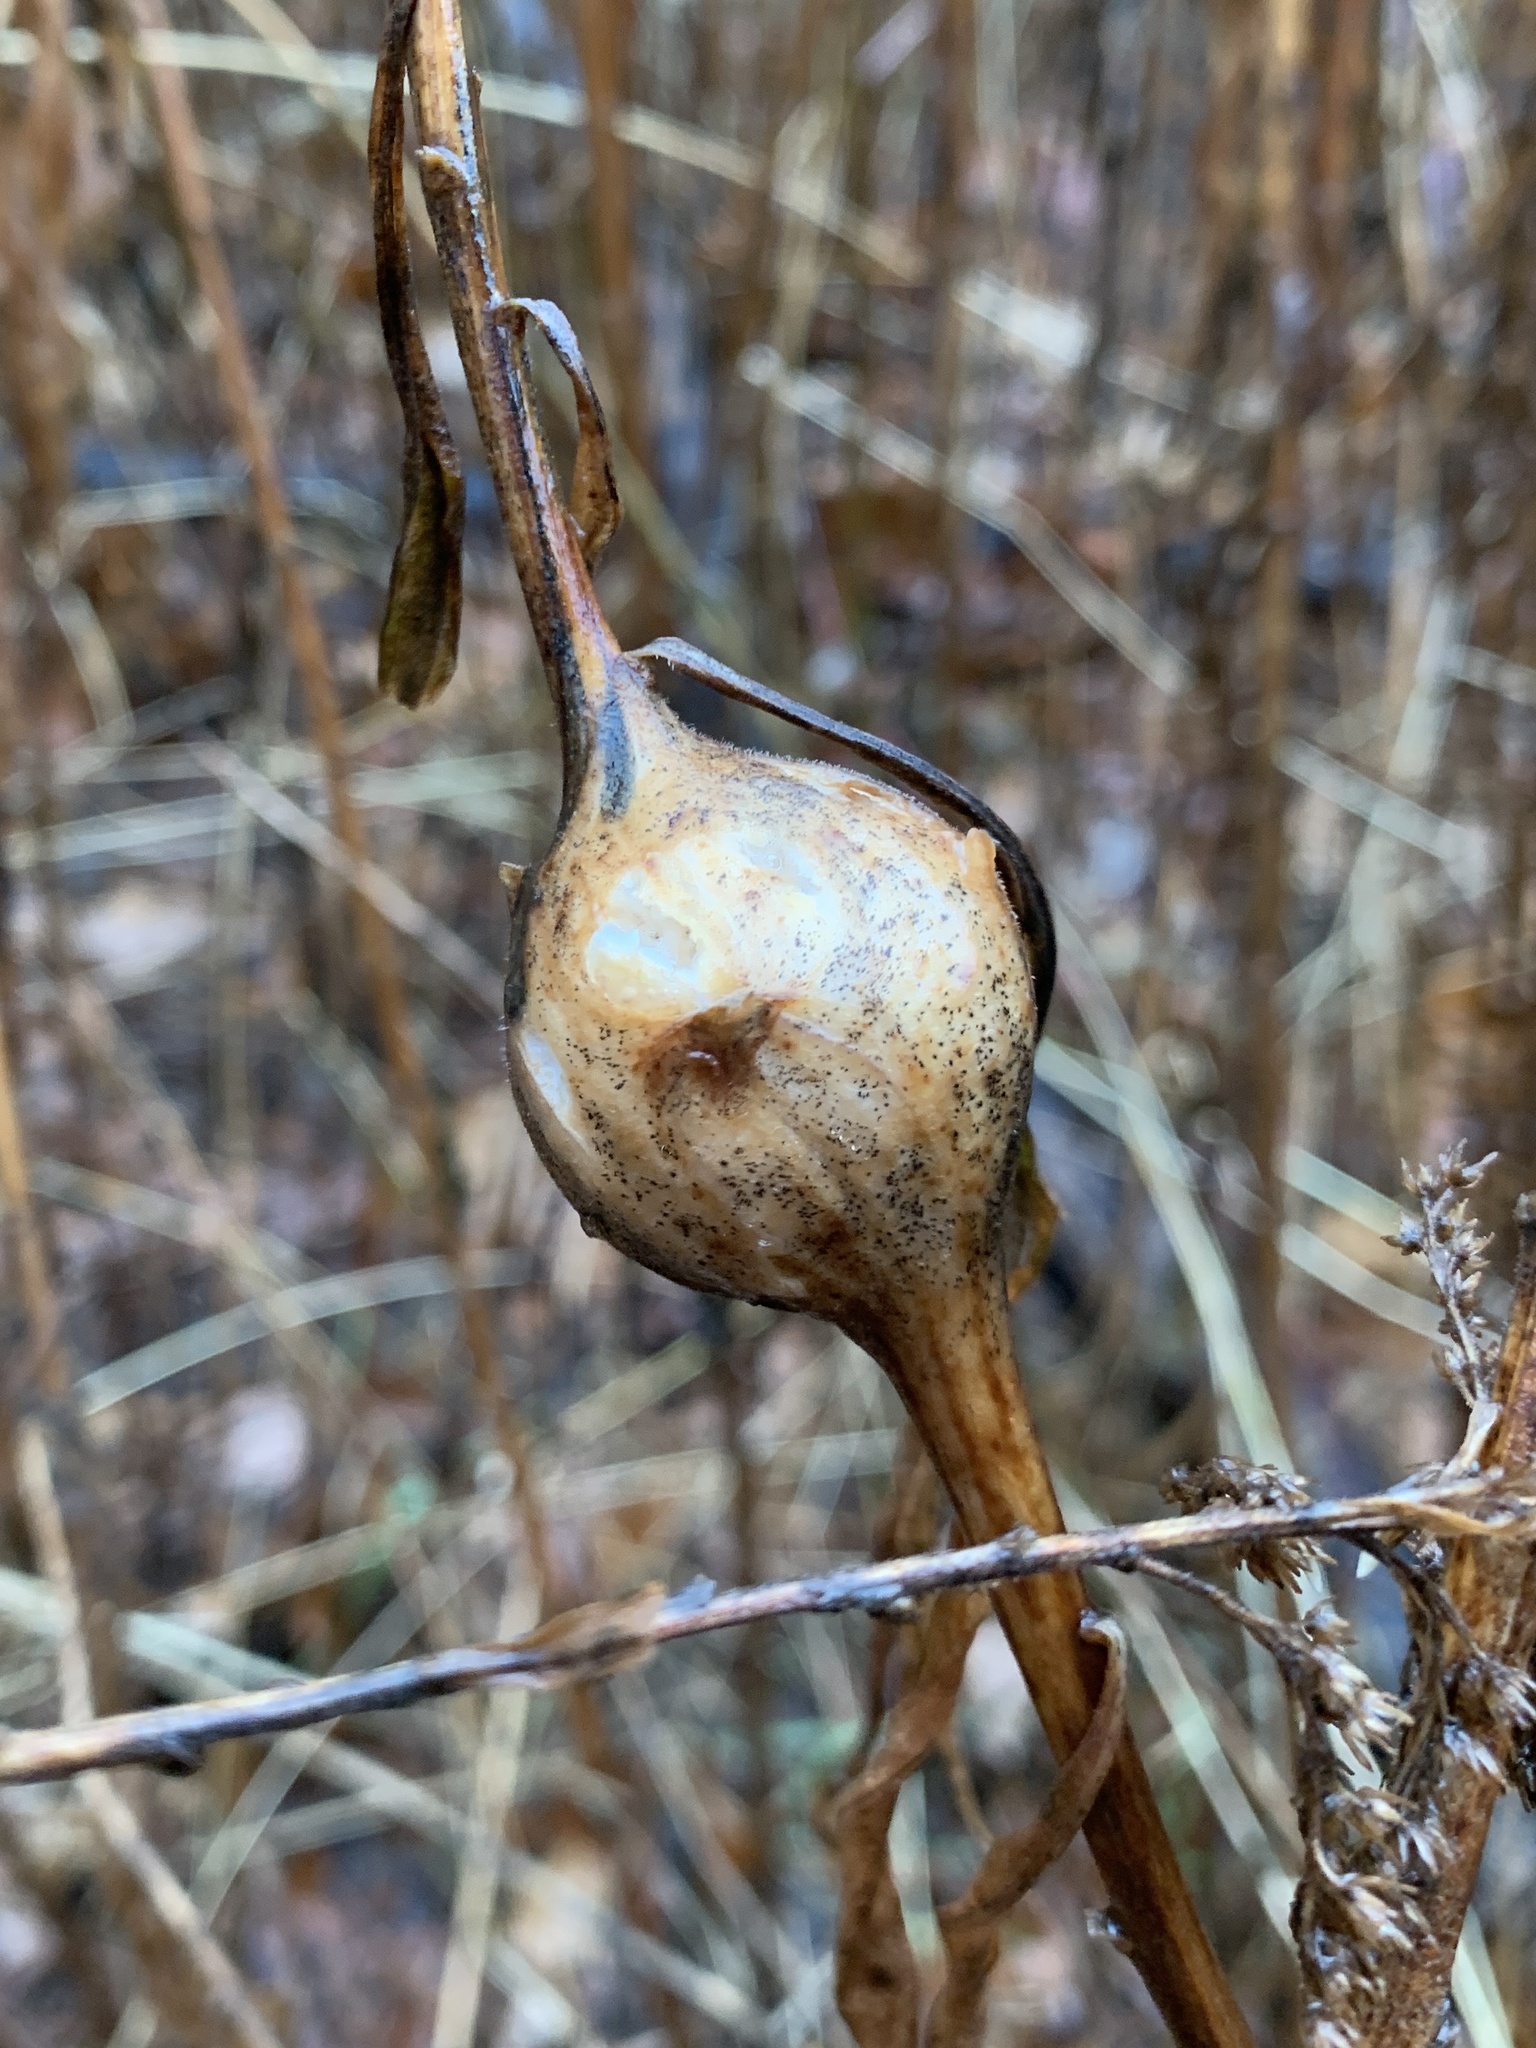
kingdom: Animalia
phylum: Arthropoda
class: Insecta
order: Diptera
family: Tephritidae
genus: Eurosta
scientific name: Eurosta solidaginis
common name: Goldenrod gall fly
